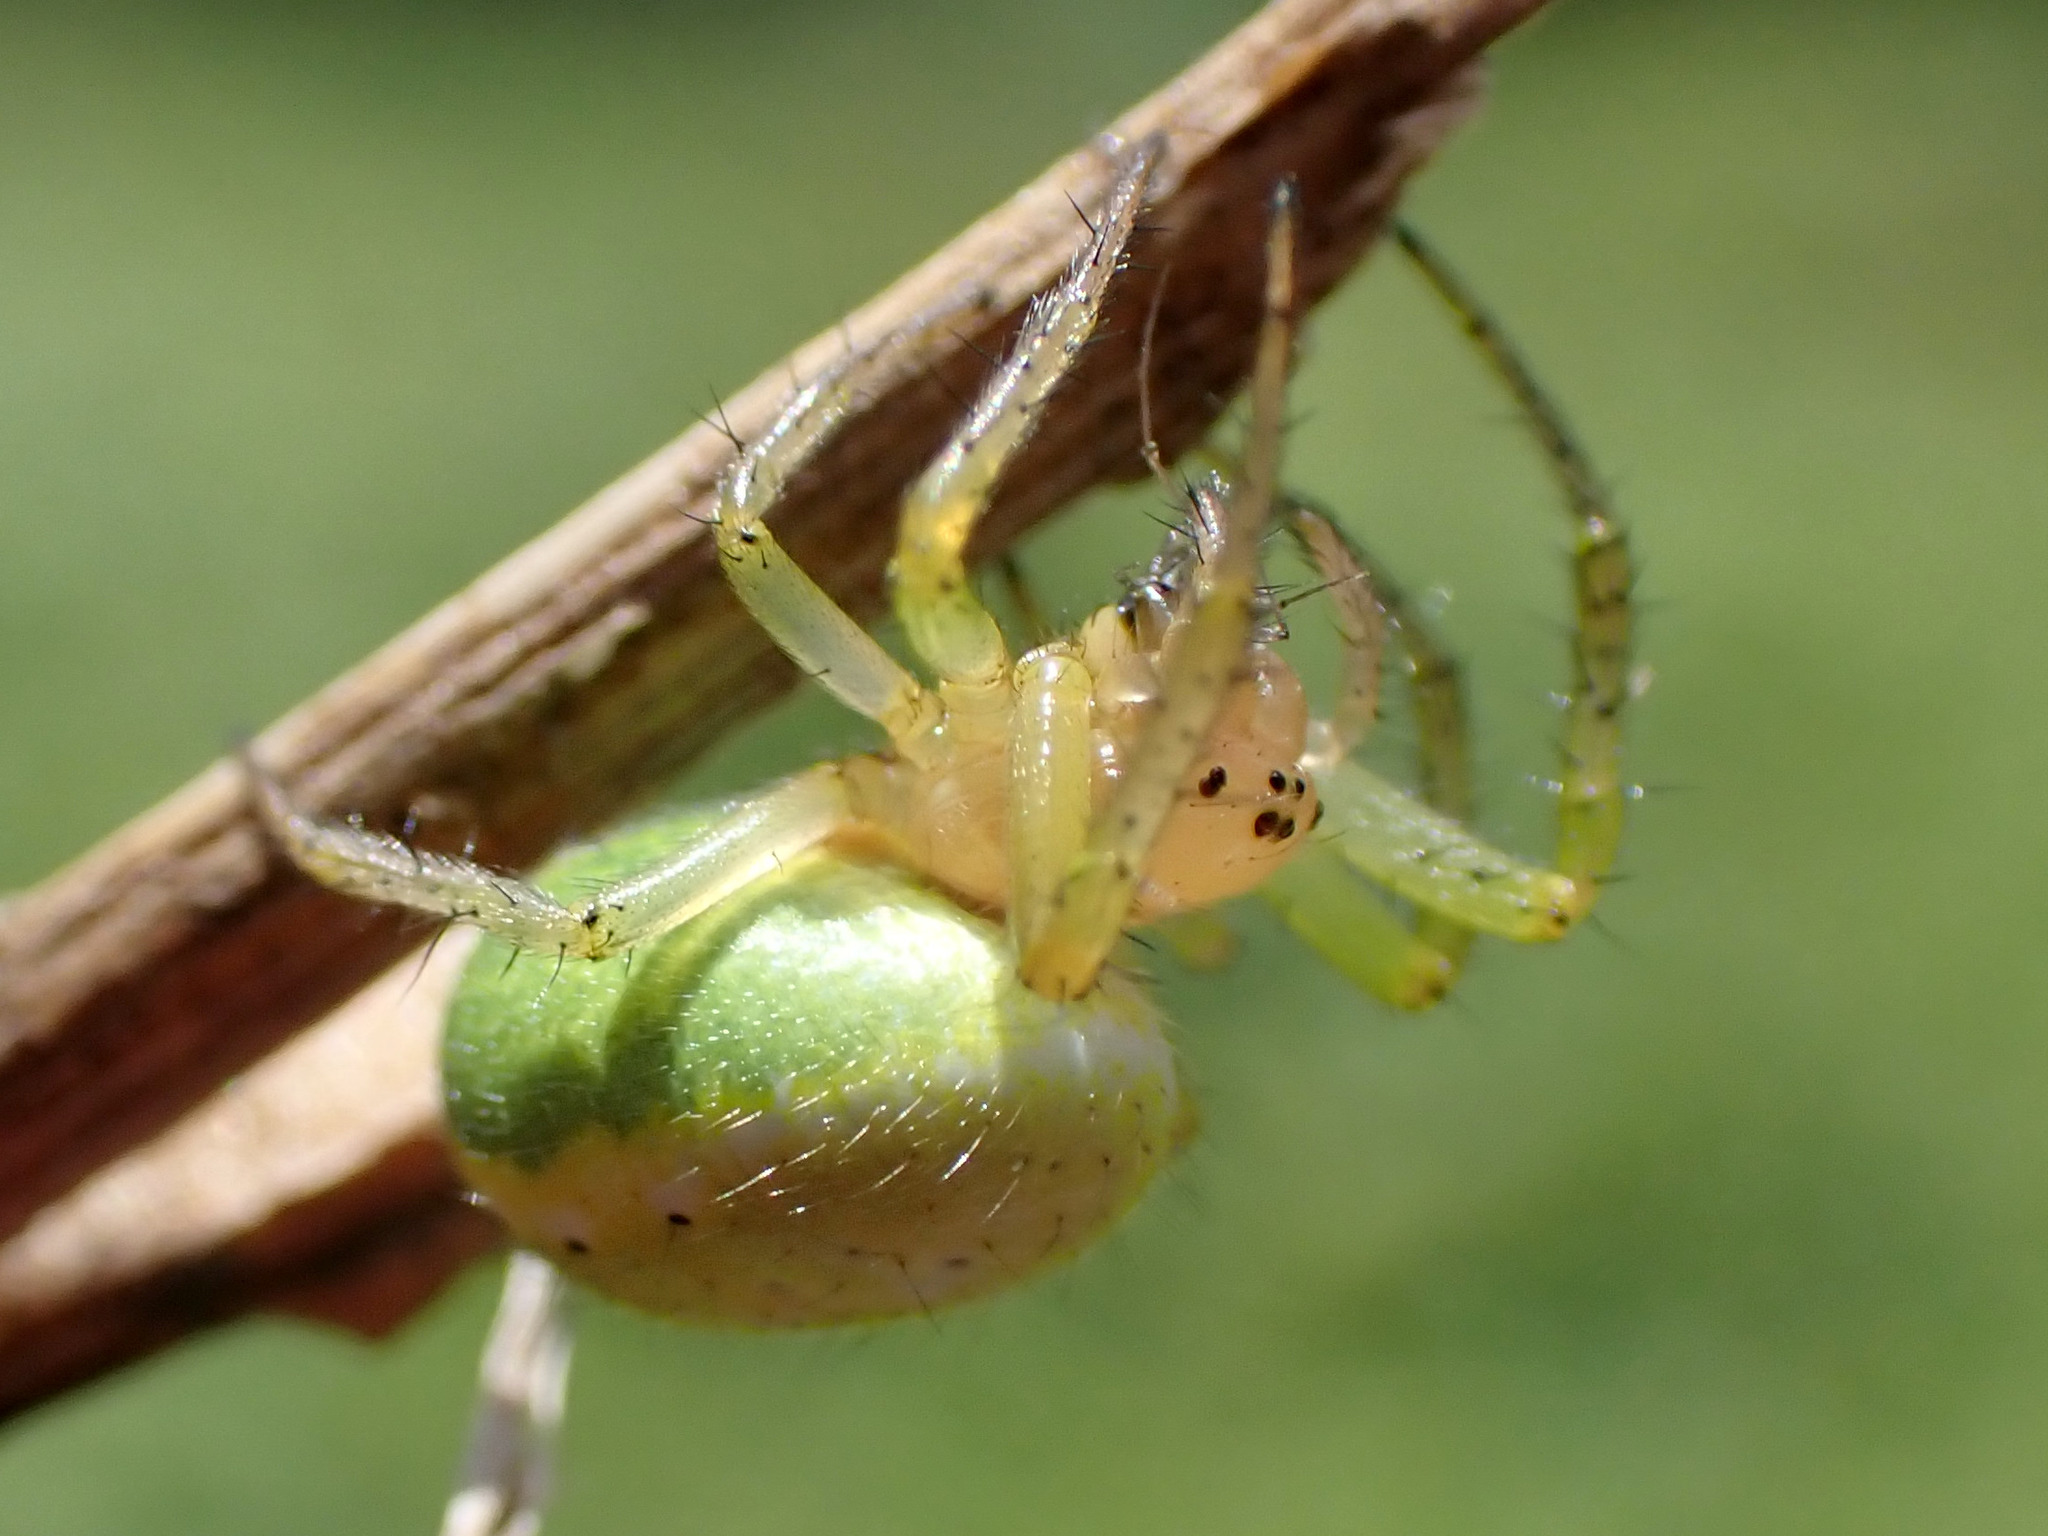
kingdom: Animalia
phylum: Arthropoda
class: Arachnida
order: Araneae
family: Araneidae
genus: Araniella
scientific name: Araniella
